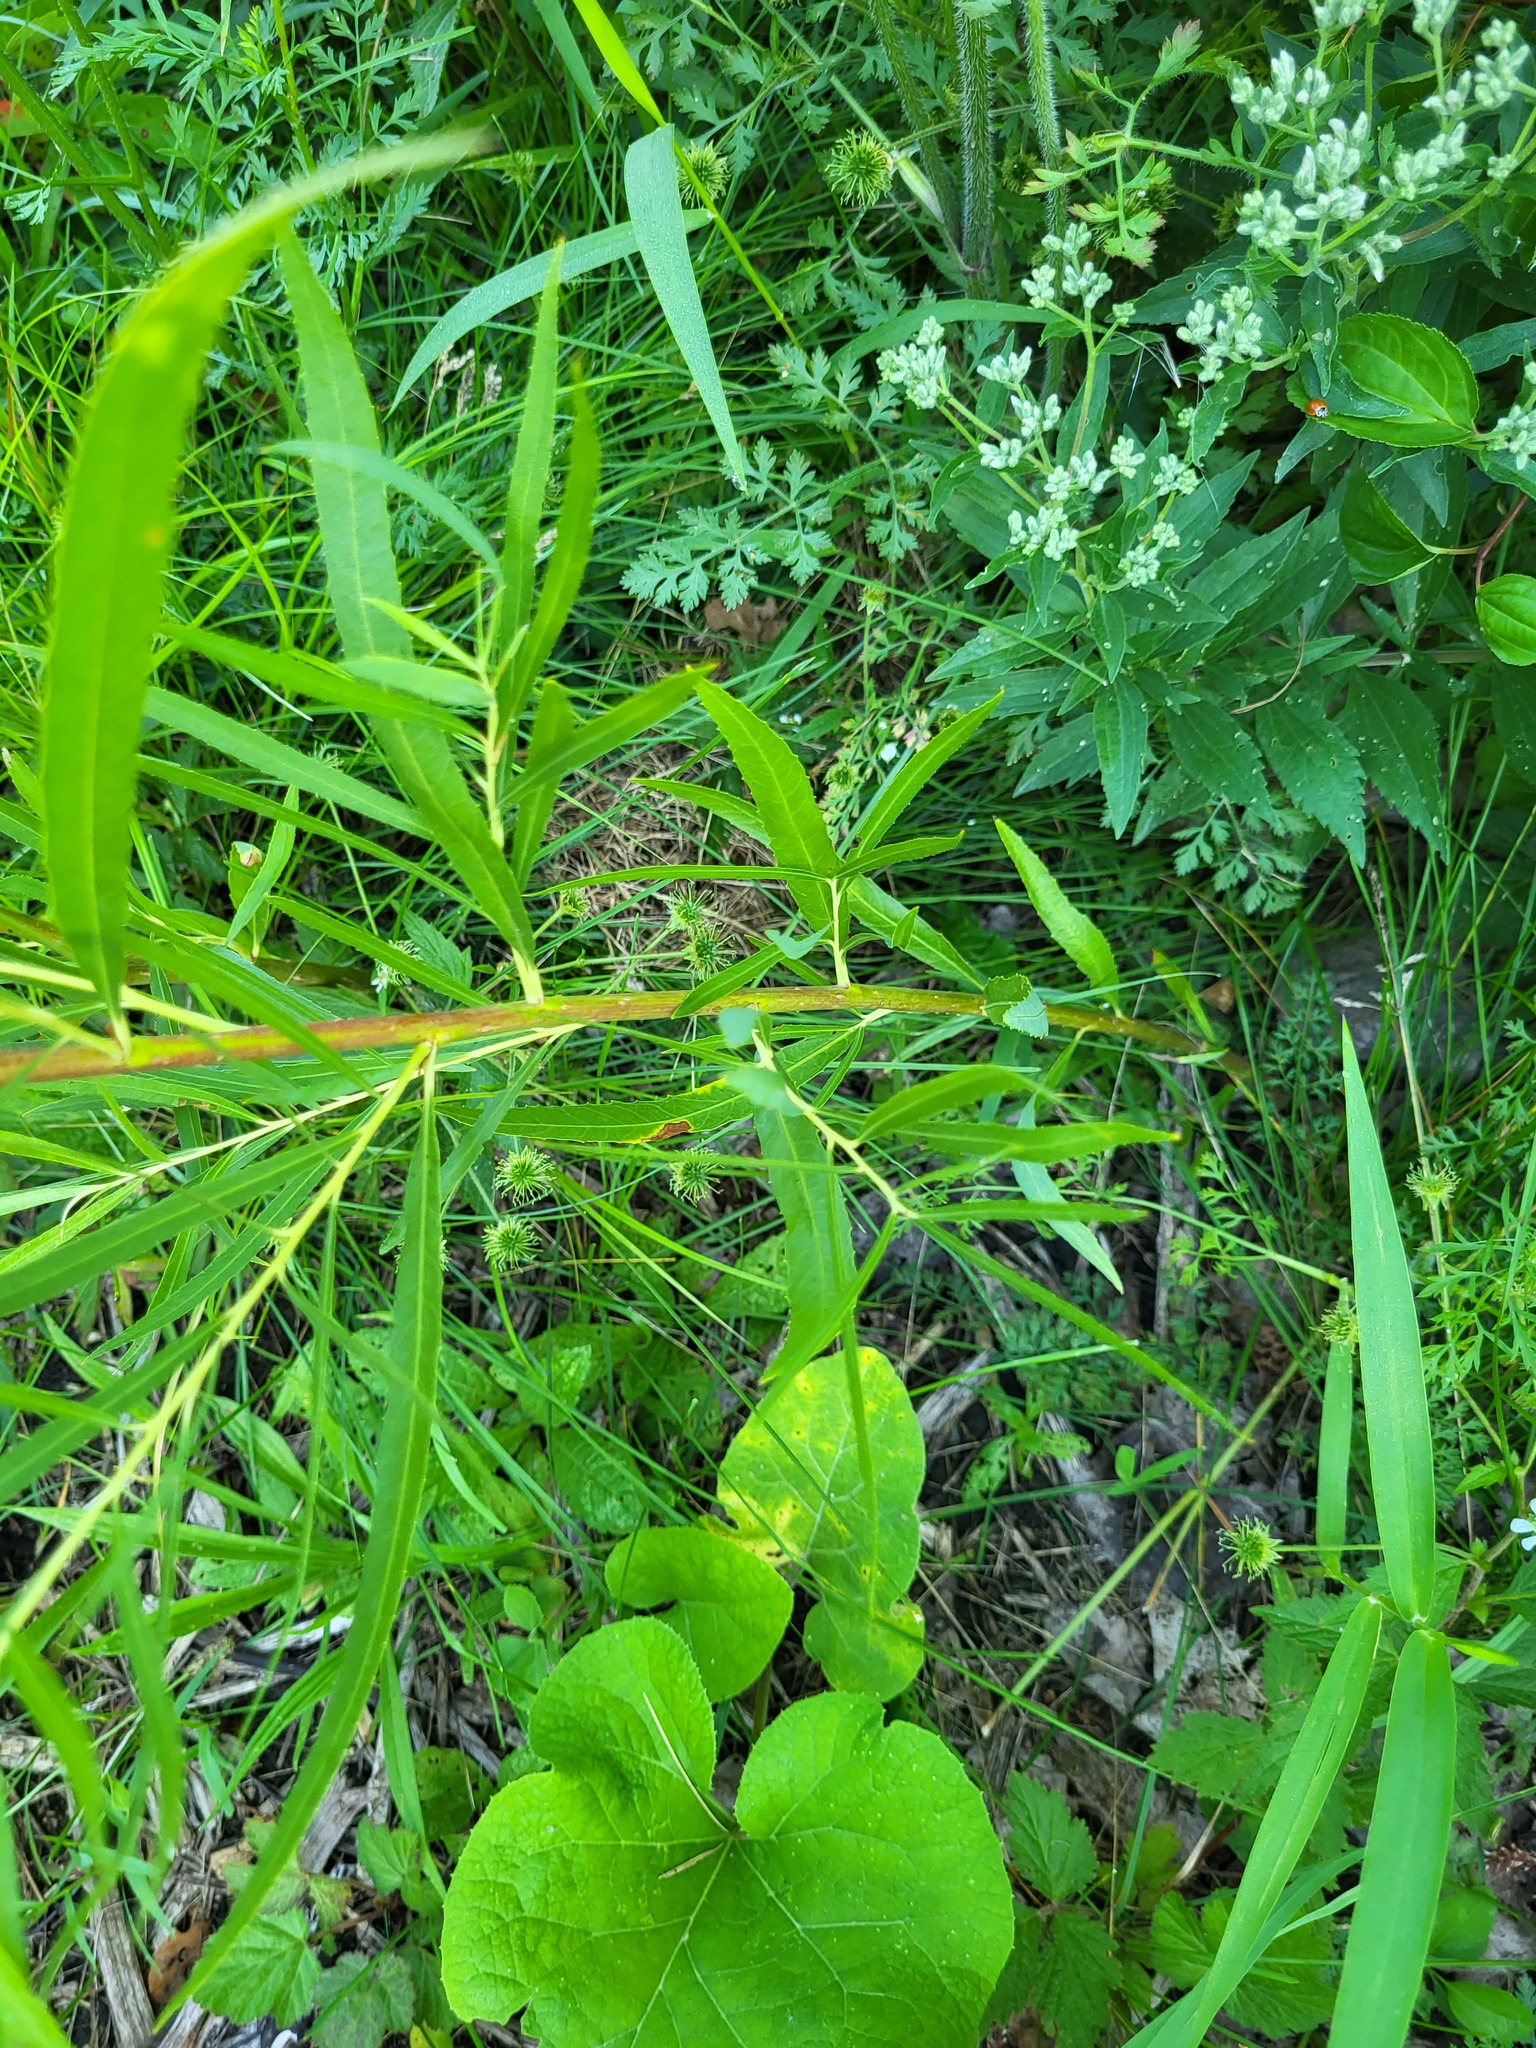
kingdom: Plantae
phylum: Tracheophyta
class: Magnoliopsida
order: Malpighiales
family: Salicaceae
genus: Salix
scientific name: Salix interior
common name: Sandbar willow
